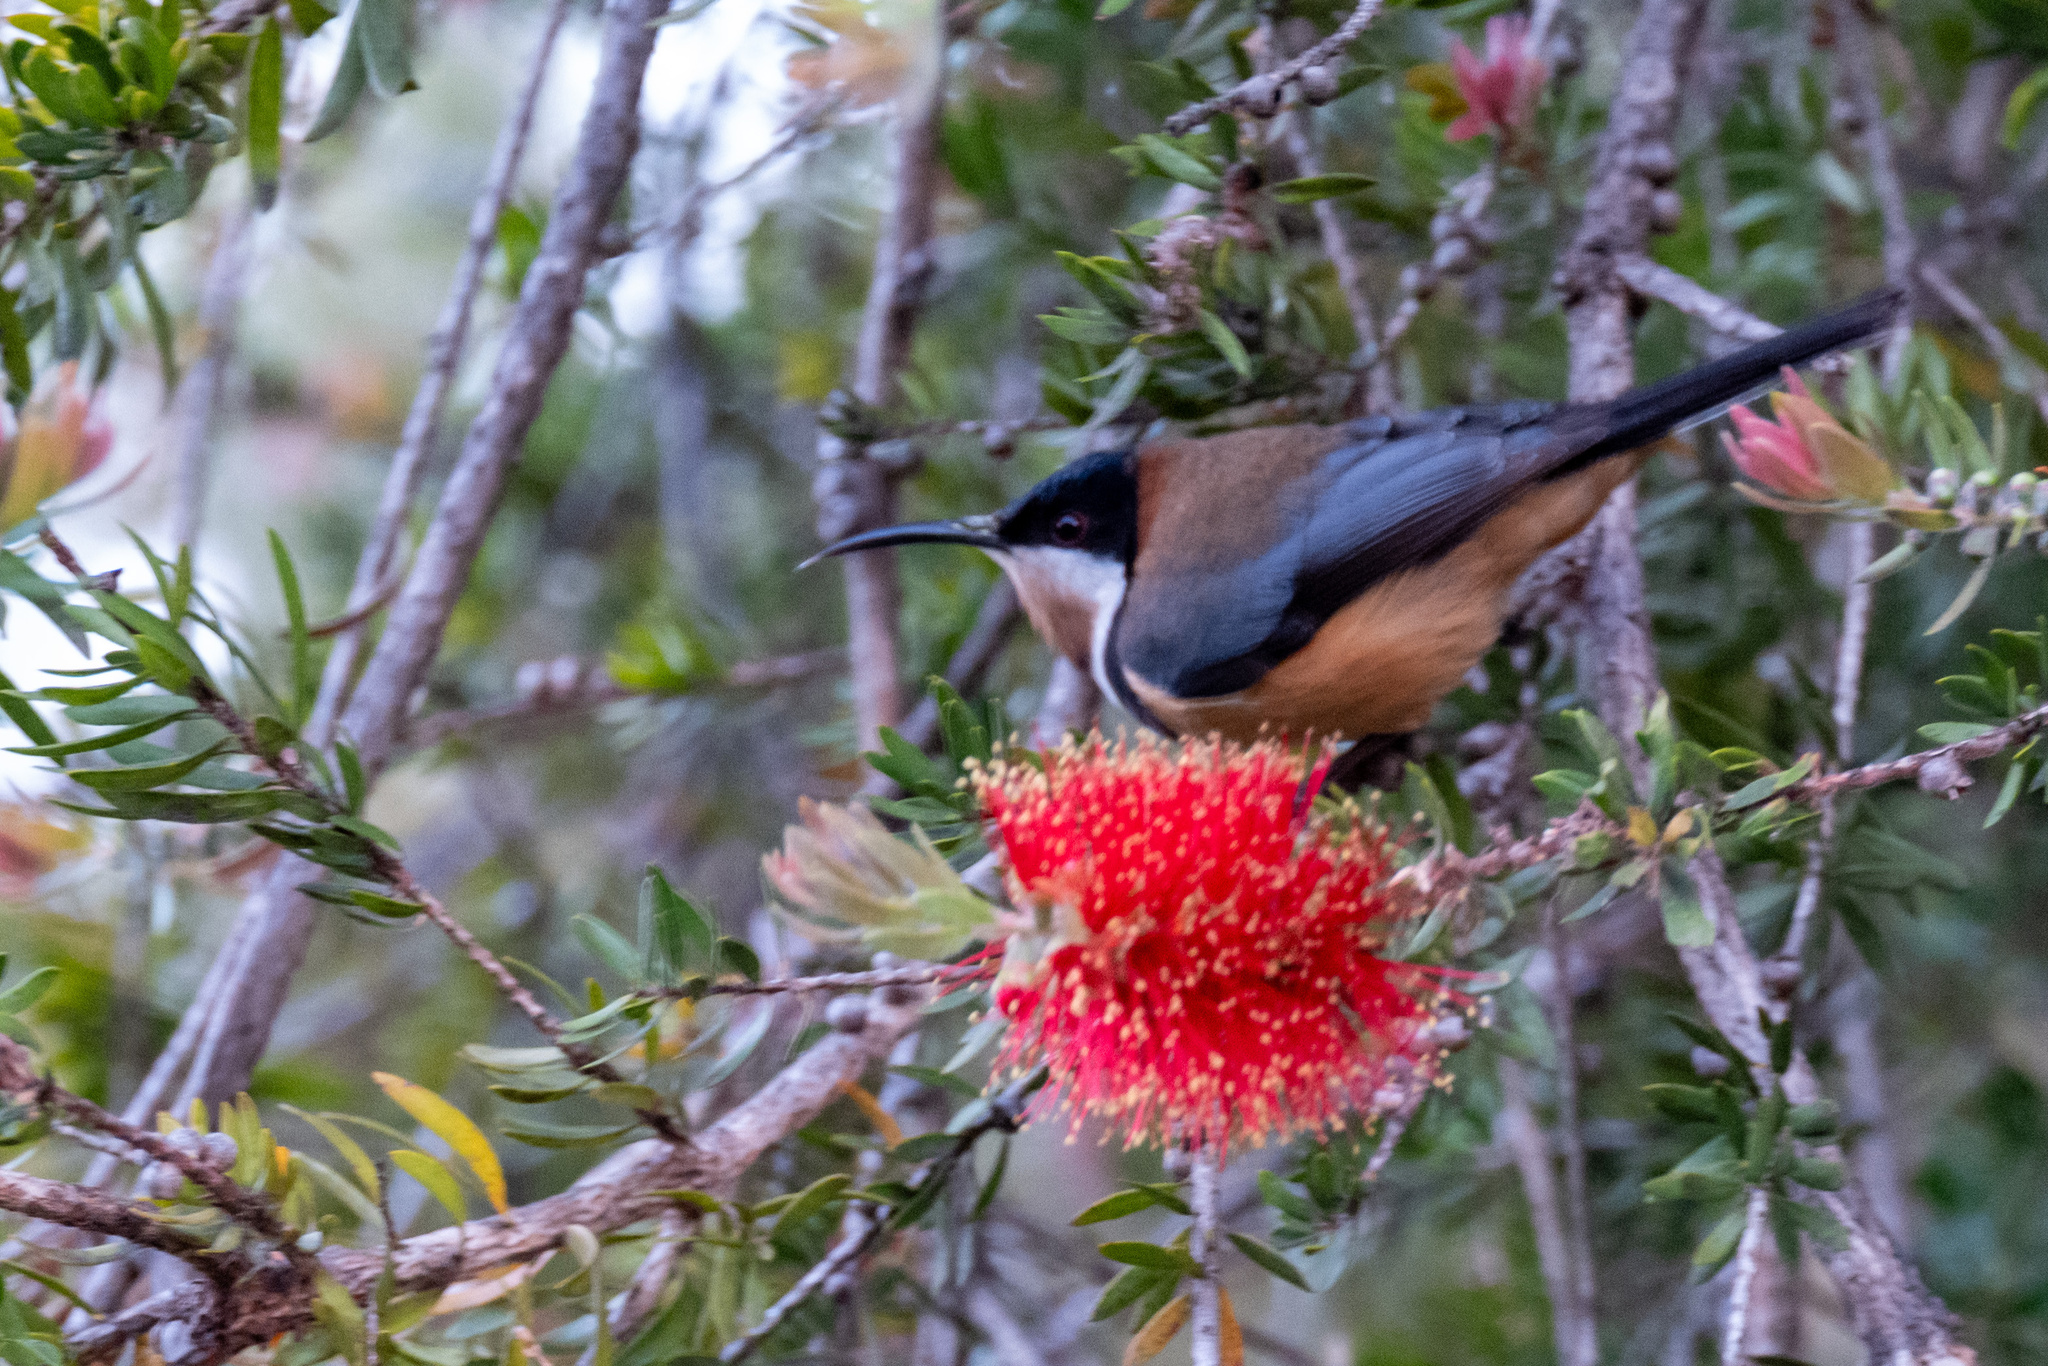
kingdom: Animalia
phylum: Chordata
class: Aves
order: Passeriformes
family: Meliphagidae
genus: Acanthorhynchus
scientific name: Acanthorhynchus tenuirostris
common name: Eastern spinebill
